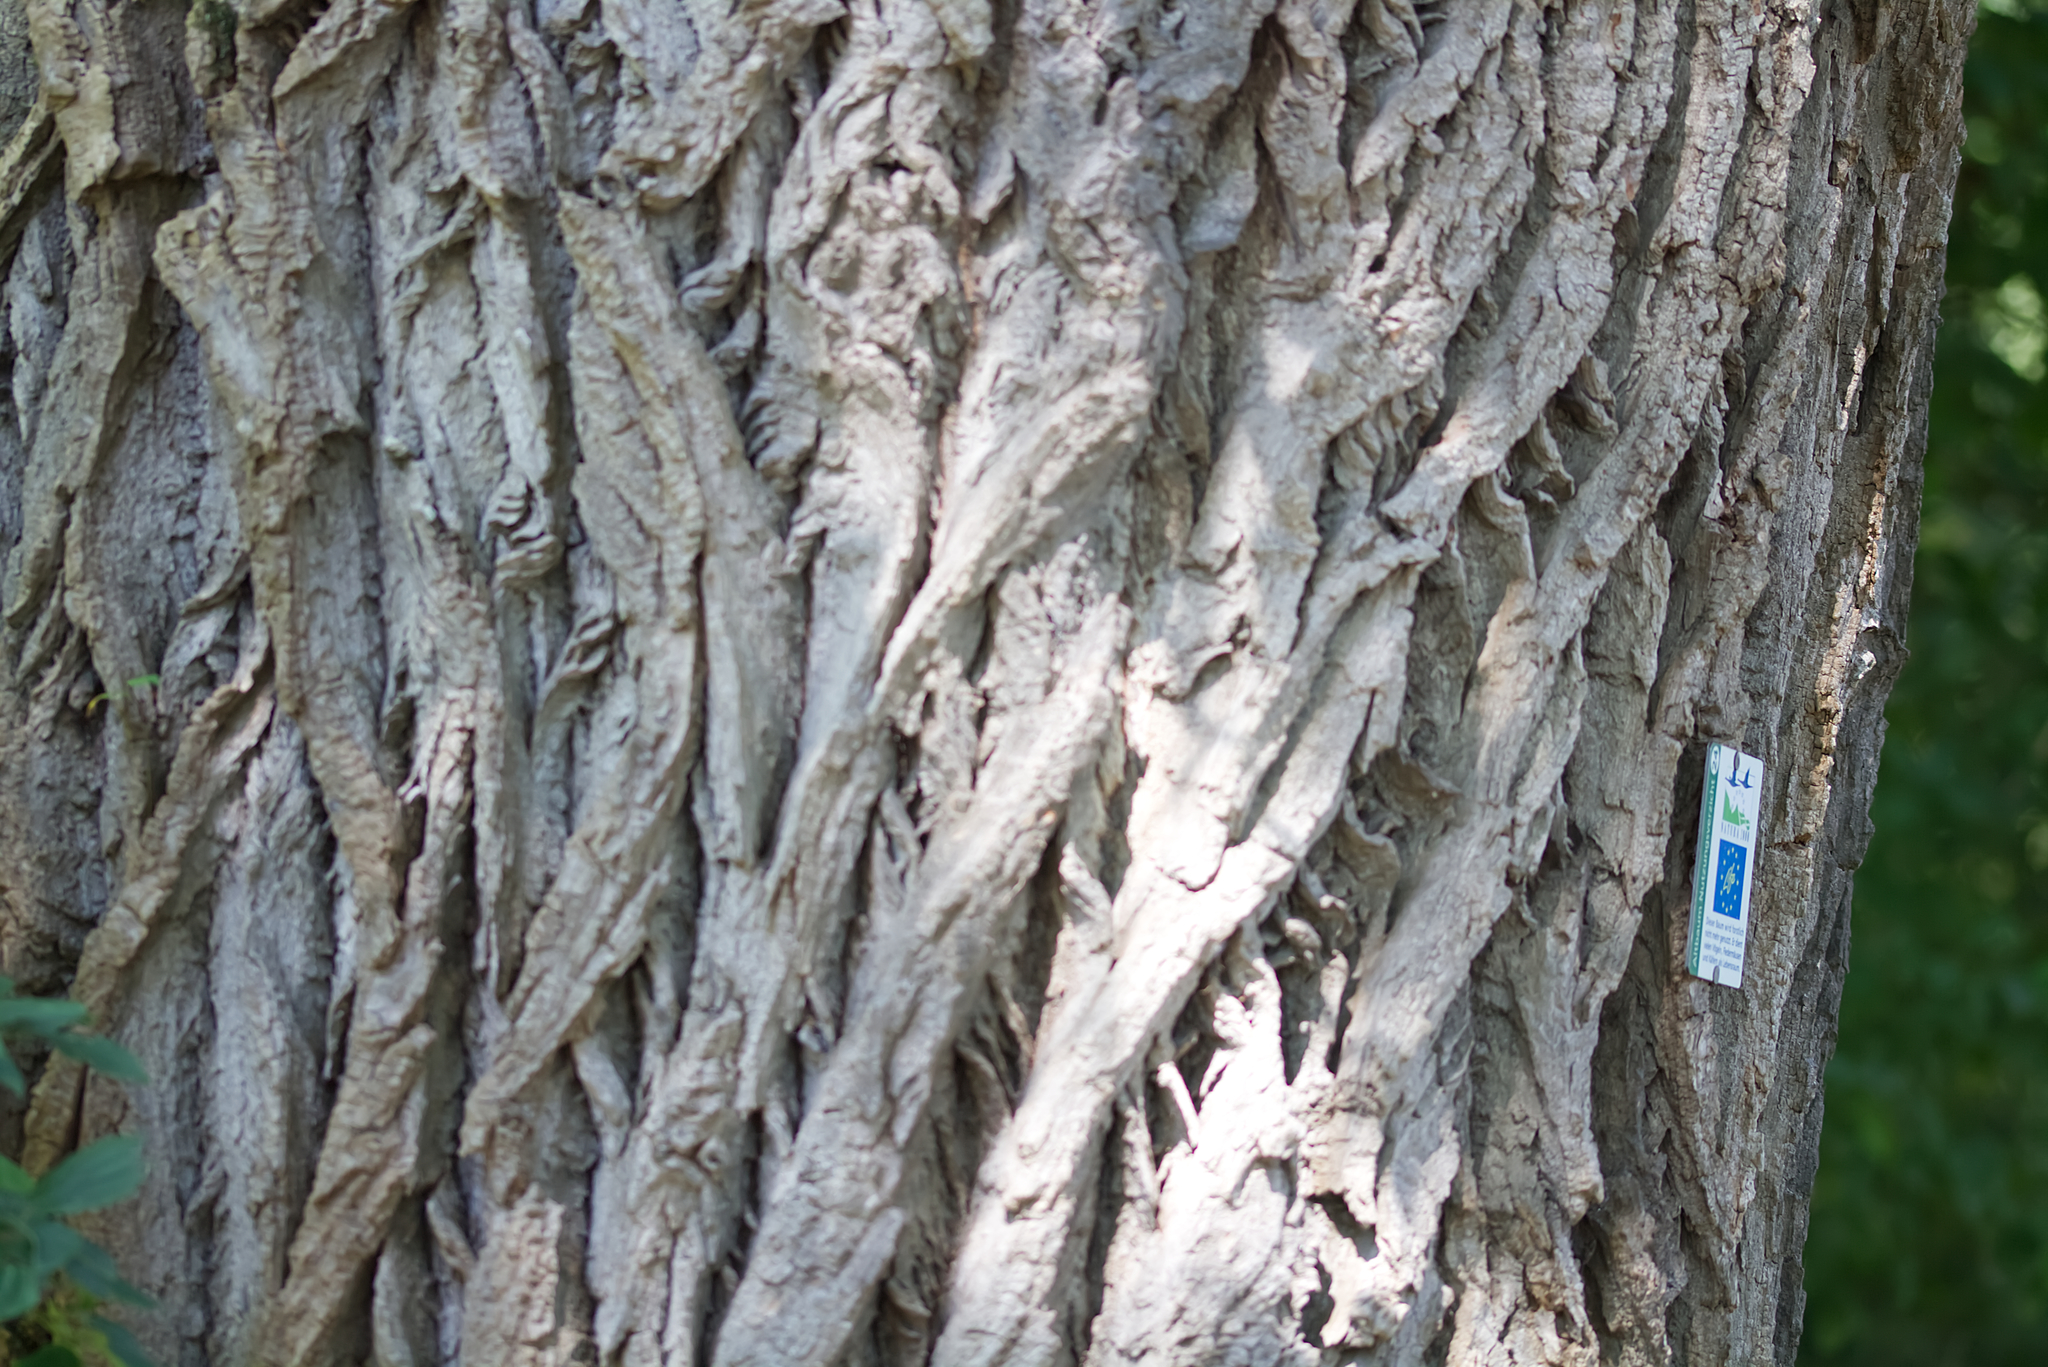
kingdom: Plantae
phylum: Tracheophyta
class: Magnoliopsida
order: Malpighiales
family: Salicaceae
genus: Populus
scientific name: Populus nigra
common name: Black poplar
